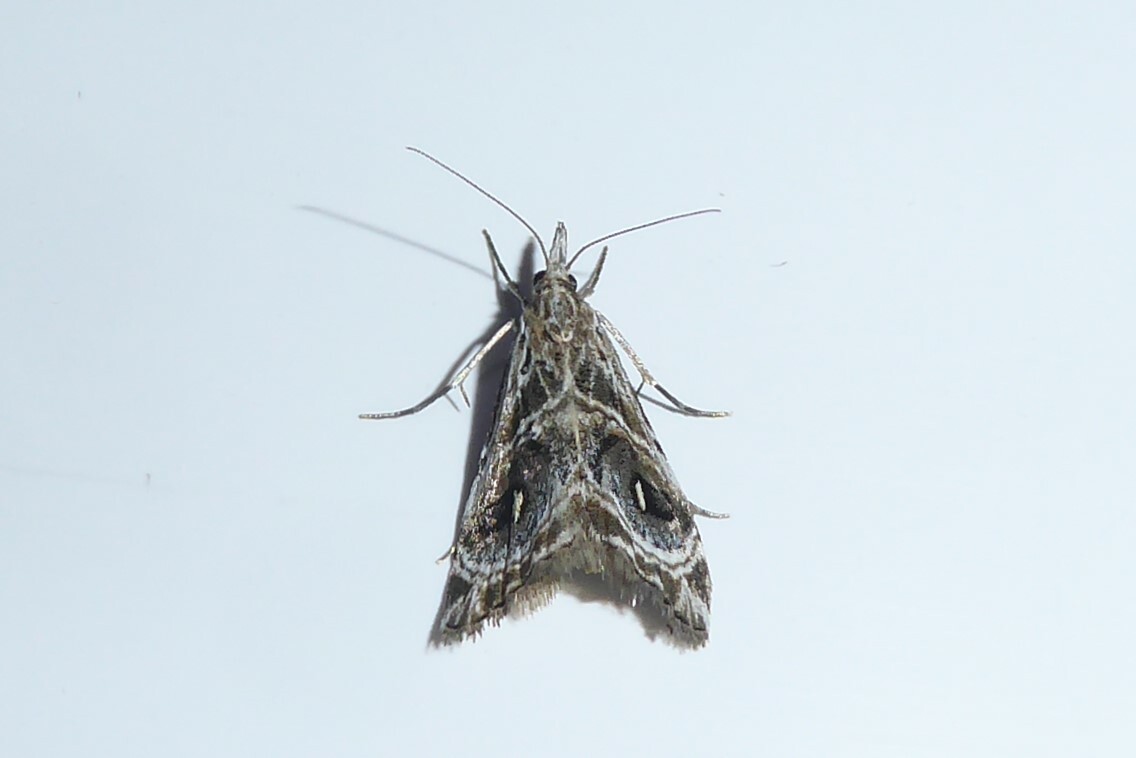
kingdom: Animalia
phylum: Arthropoda
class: Insecta
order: Lepidoptera
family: Crambidae
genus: Gadira
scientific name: Gadira acerella
